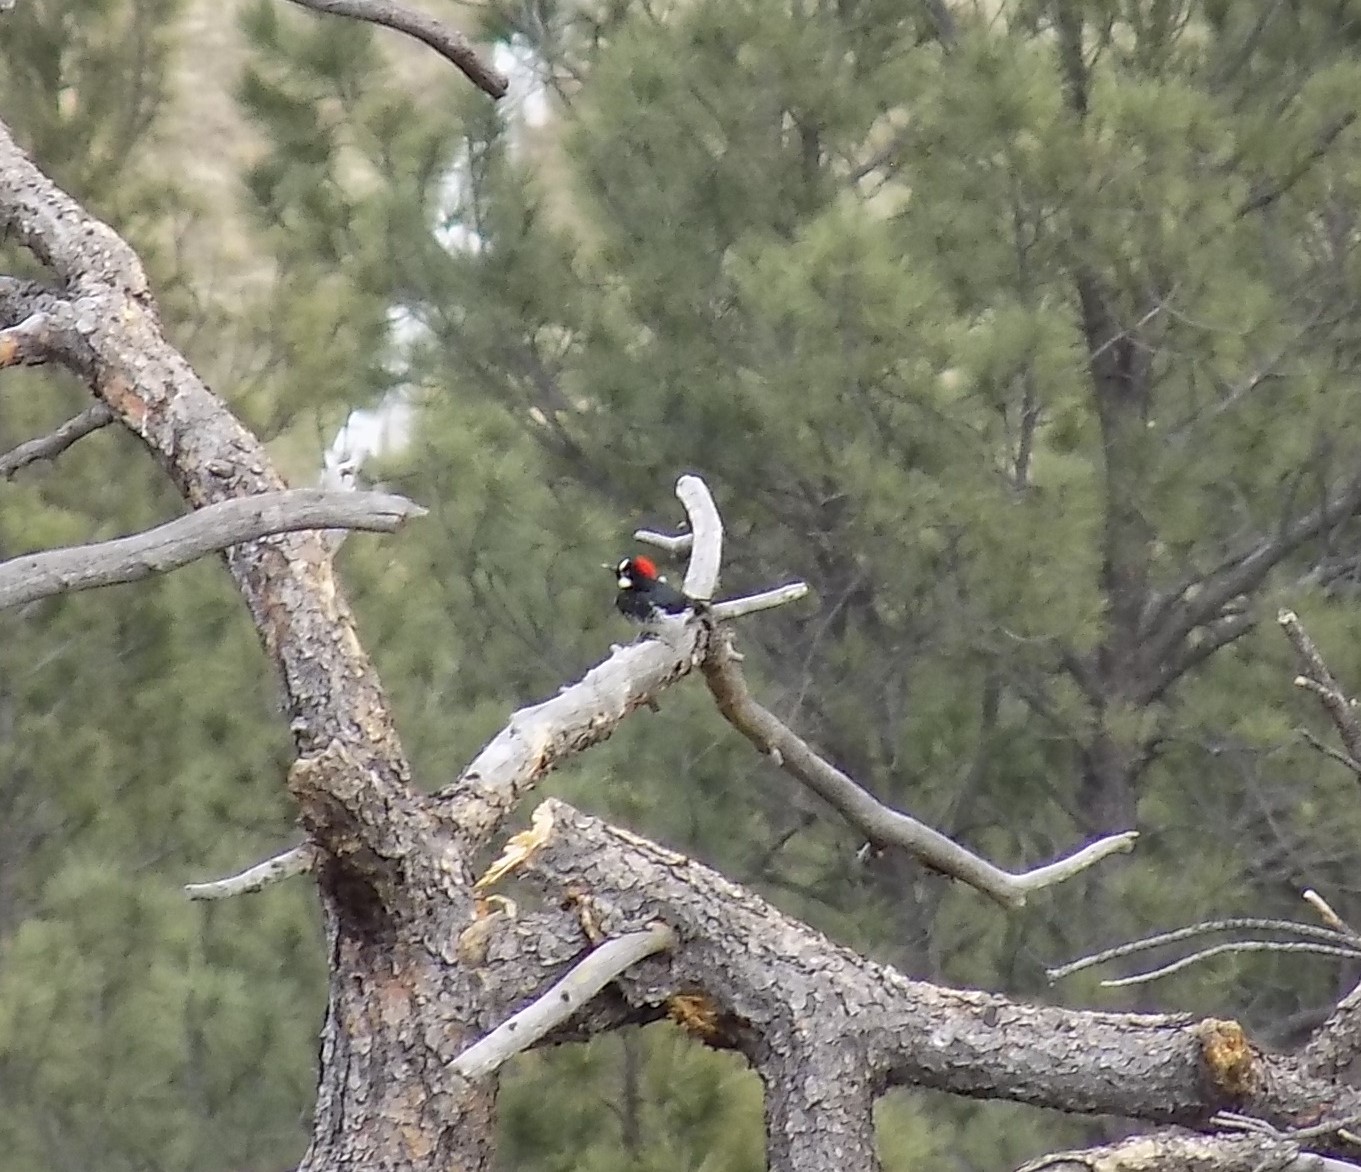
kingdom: Animalia
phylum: Chordata
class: Aves
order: Piciformes
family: Picidae
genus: Melanerpes
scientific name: Melanerpes formicivorus
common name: Acorn woodpecker
